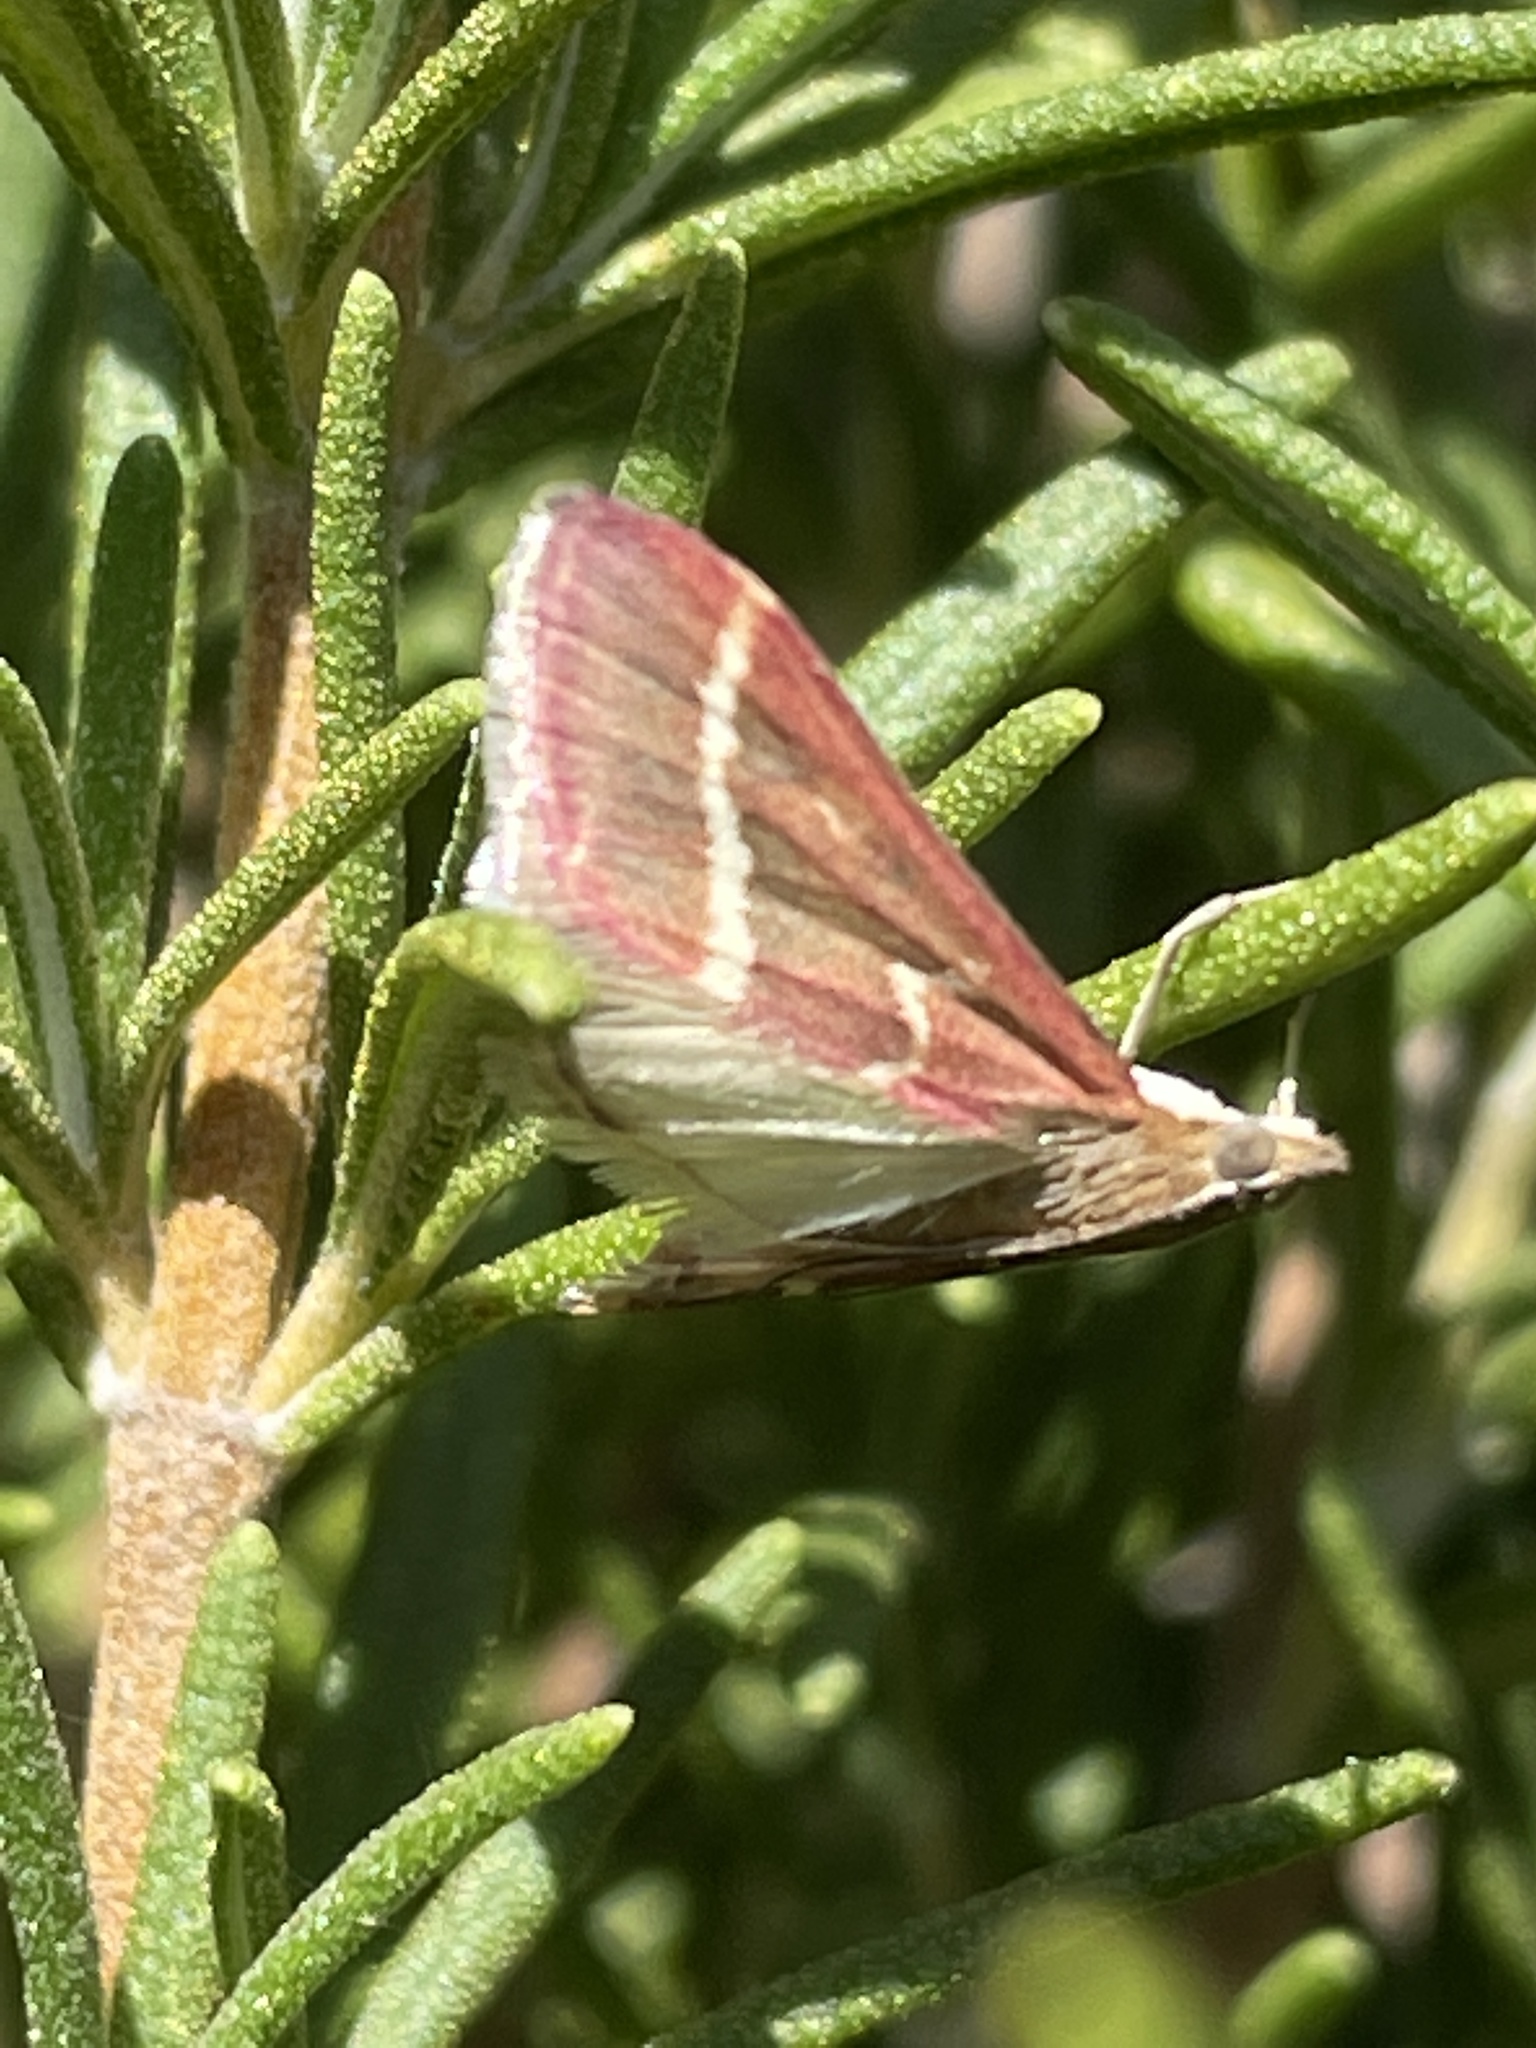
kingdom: Animalia
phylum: Arthropoda
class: Insecta
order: Lepidoptera
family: Crambidae
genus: Pyrausta
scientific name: Pyrausta volupialis
